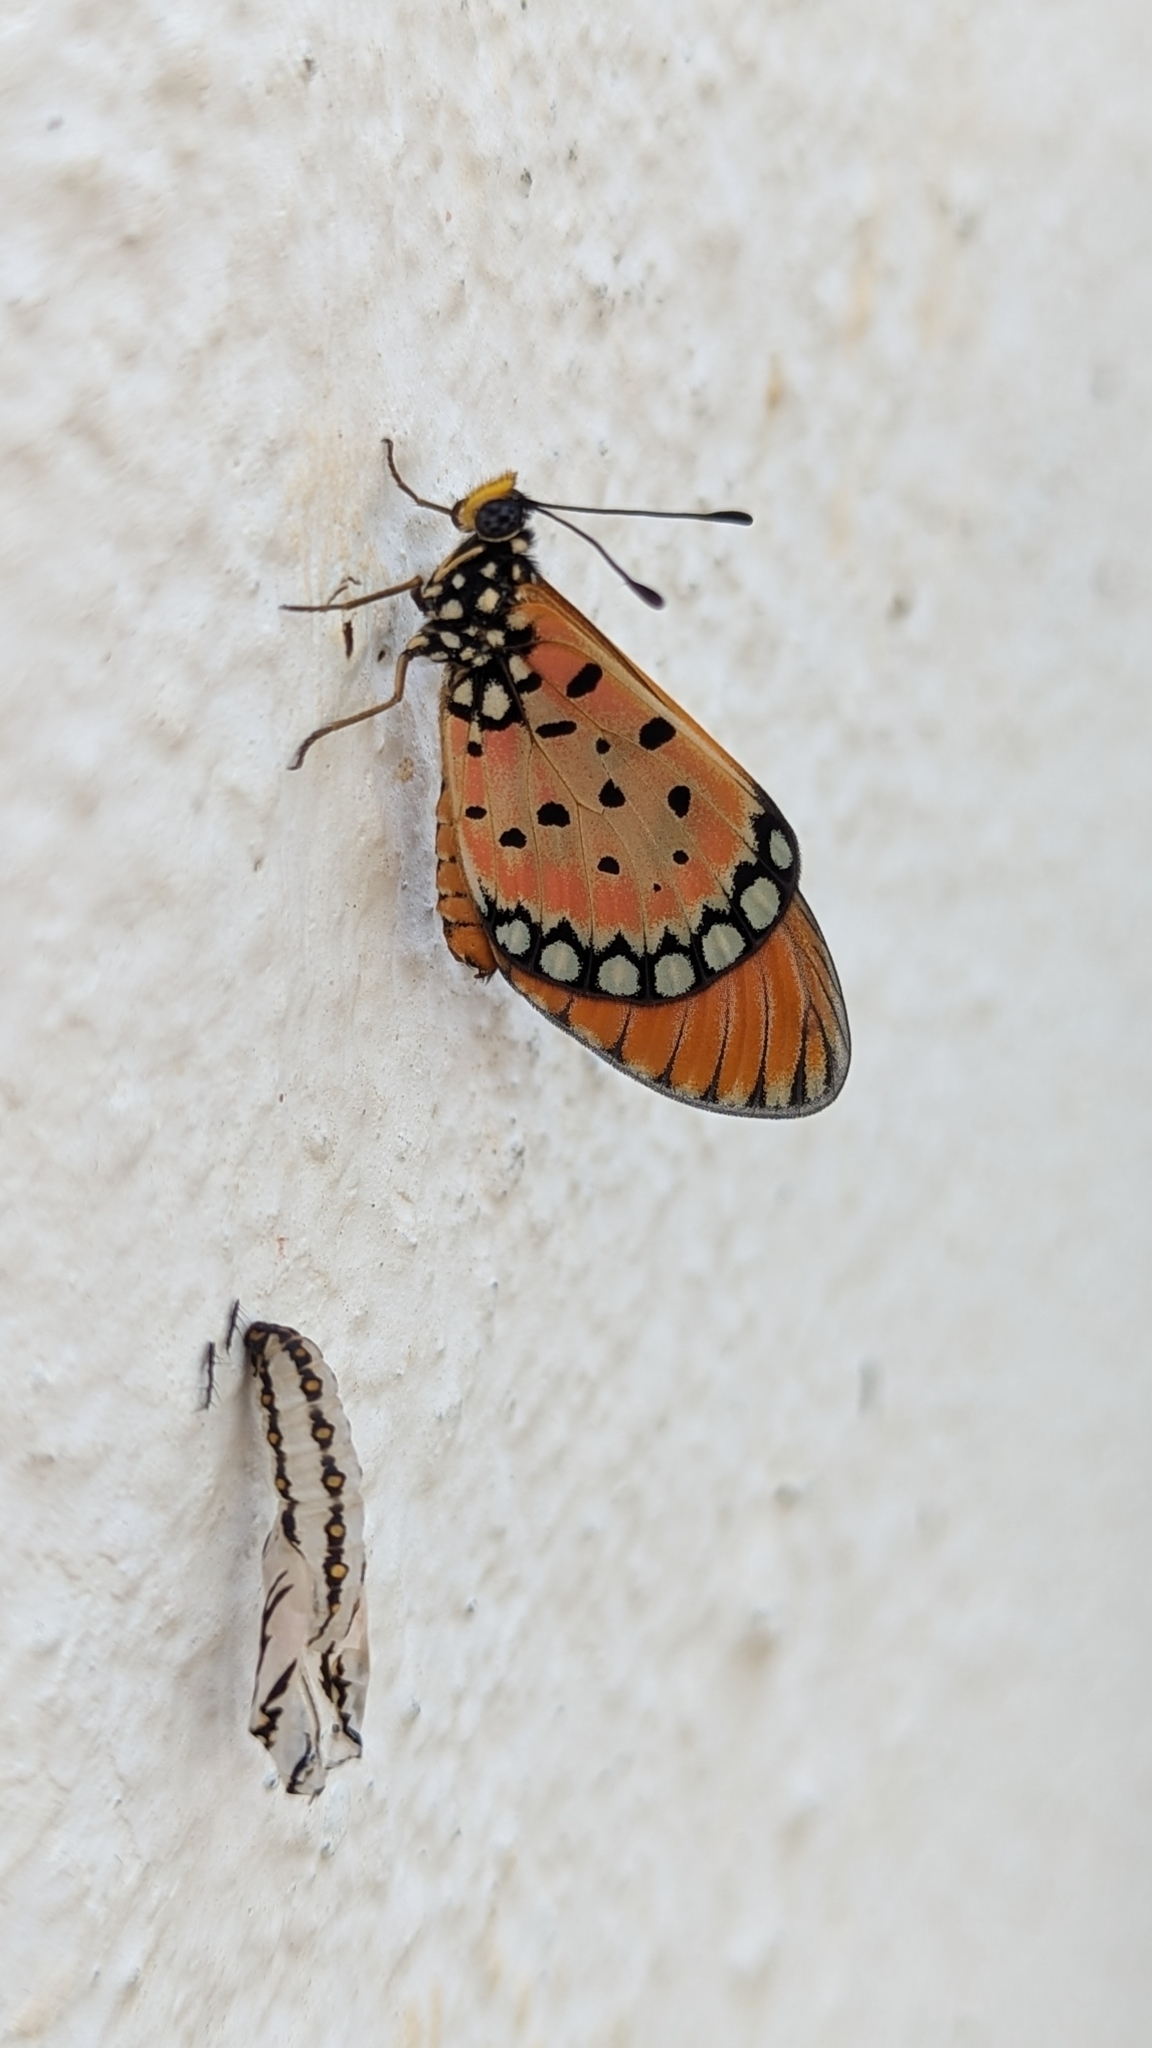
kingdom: Animalia
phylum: Arthropoda
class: Insecta
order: Lepidoptera
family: Nymphalidae
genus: Acraea
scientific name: Acraea terpsicore
